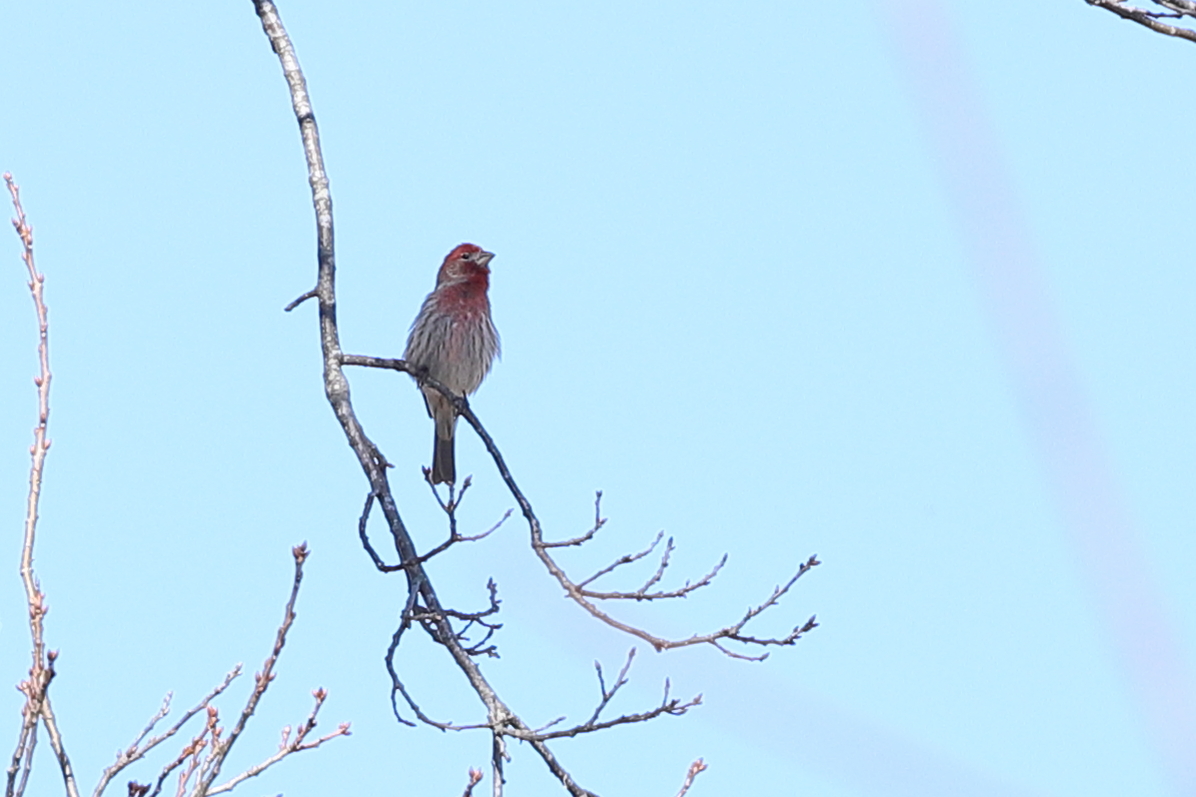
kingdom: Animalia
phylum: Chordata
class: Aves
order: Passeriformes
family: Fringillidae
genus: Haemorhous
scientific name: Haemorhous mexicanus
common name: House finch
